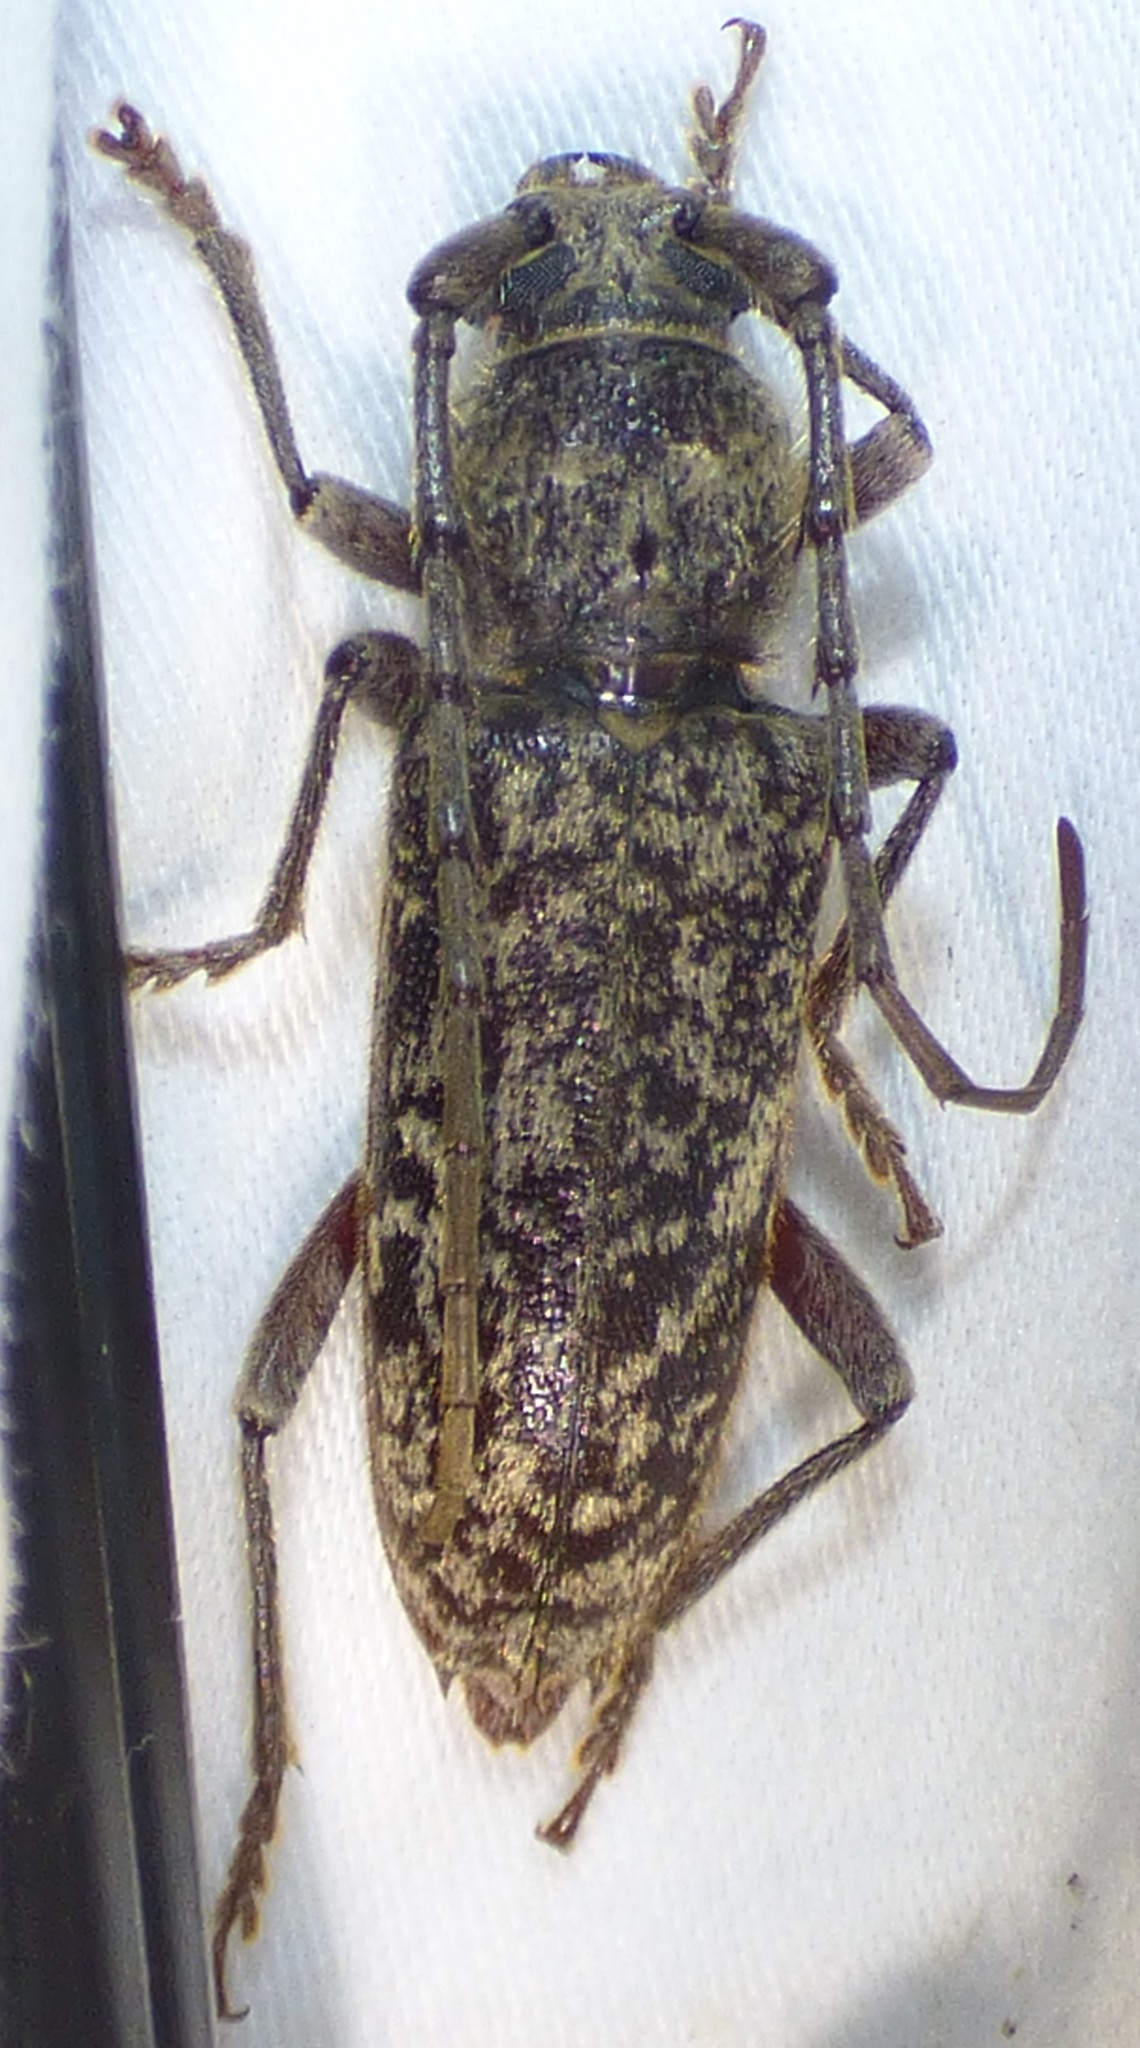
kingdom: Animalia
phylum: Arthropoda
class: Insecta
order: Coleoptera
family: Cerambycidae
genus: Enaphalodes
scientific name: Enaphalodes atomarius
